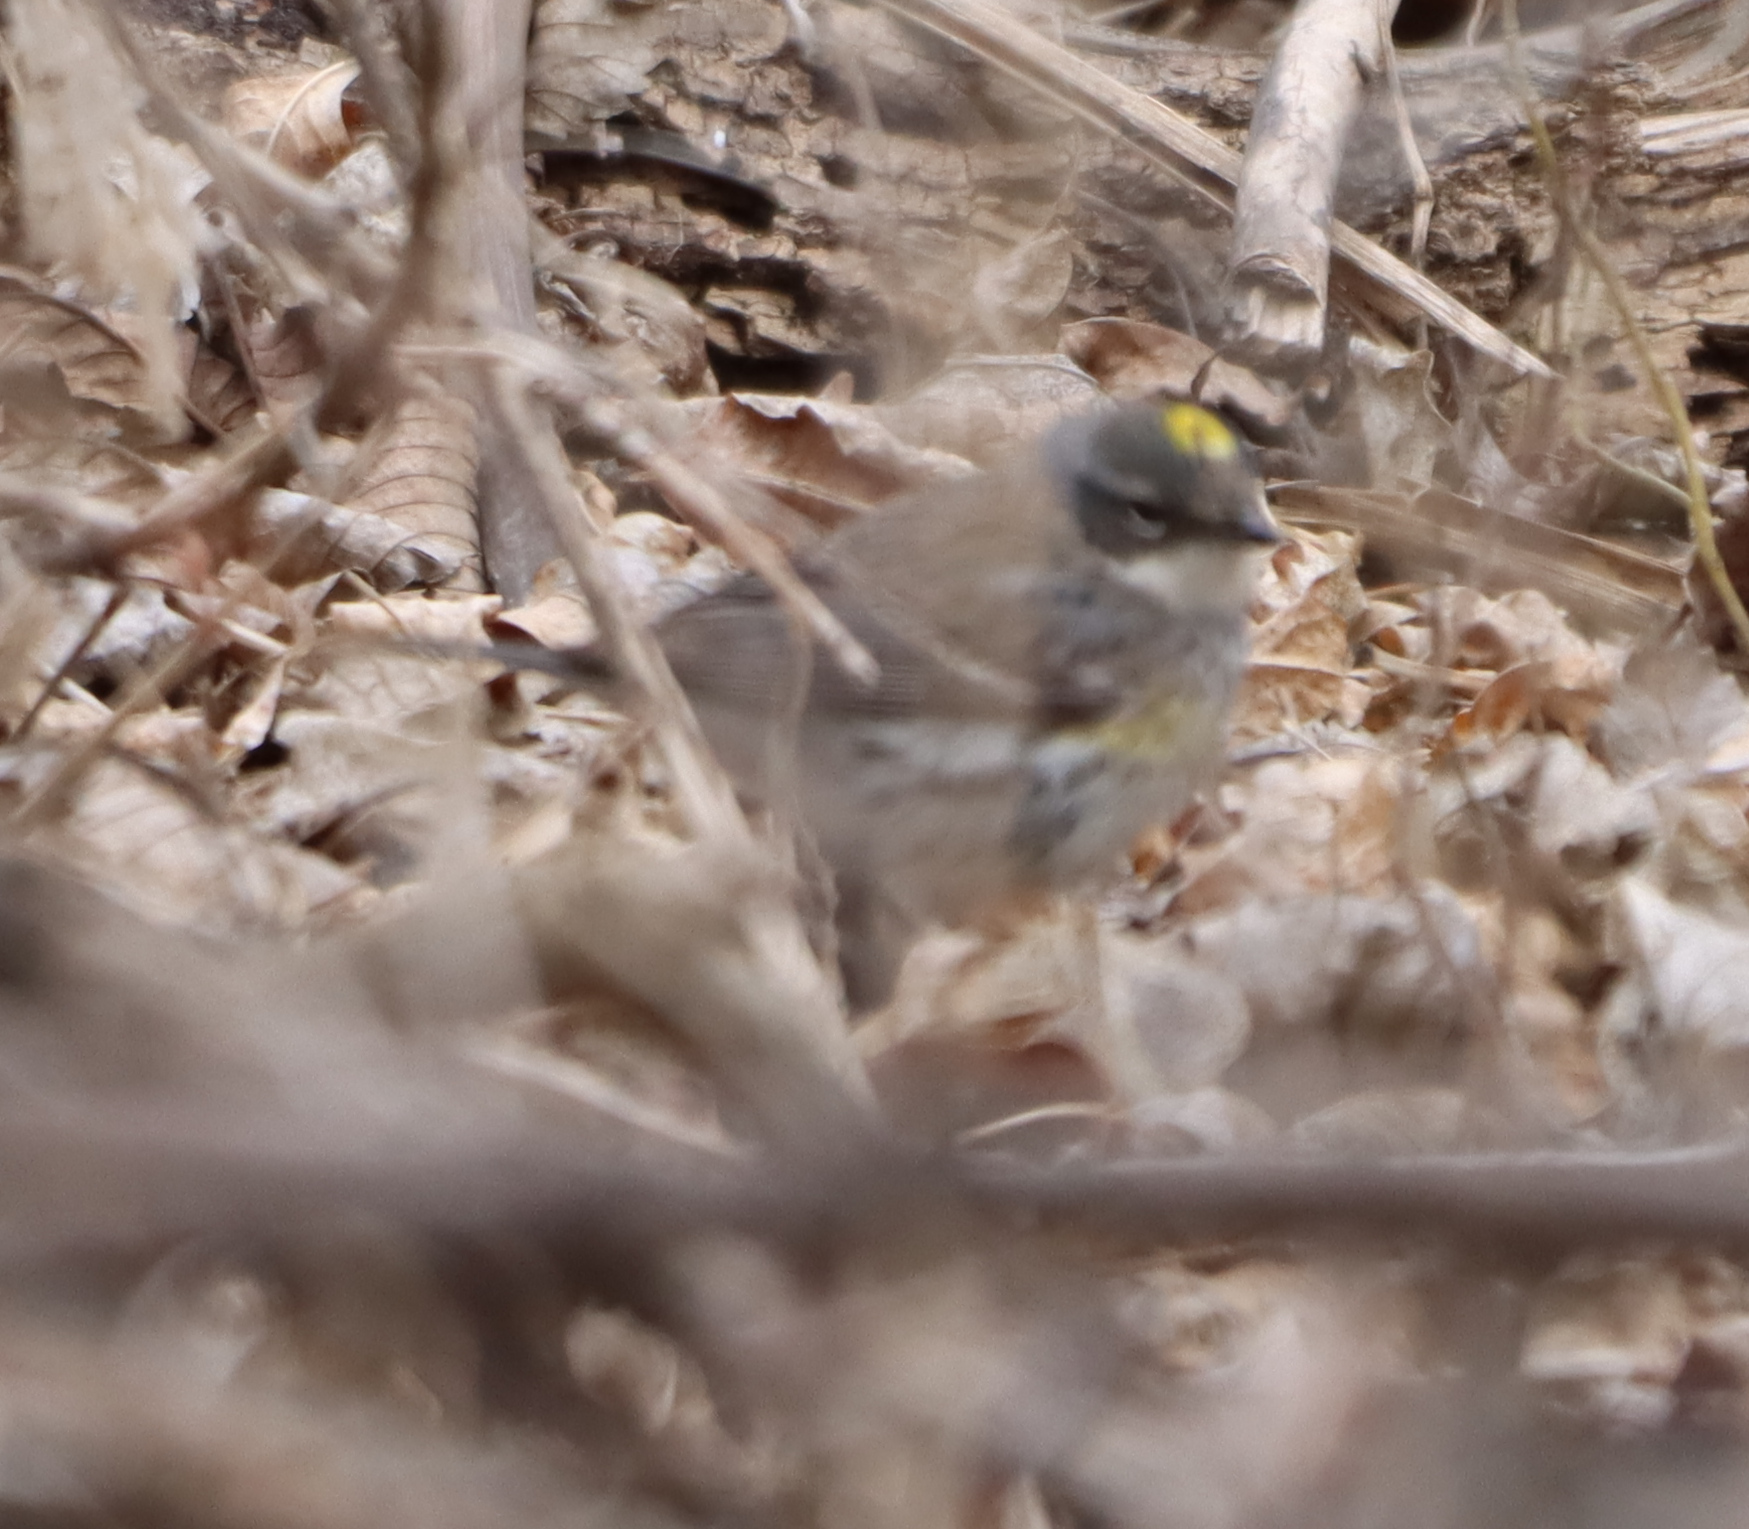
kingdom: Animalia
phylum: Chordata
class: Aves
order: Passeriformes
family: Parulidae
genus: Setophaga
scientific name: Setophaga coronata
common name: Myrtle warbler
